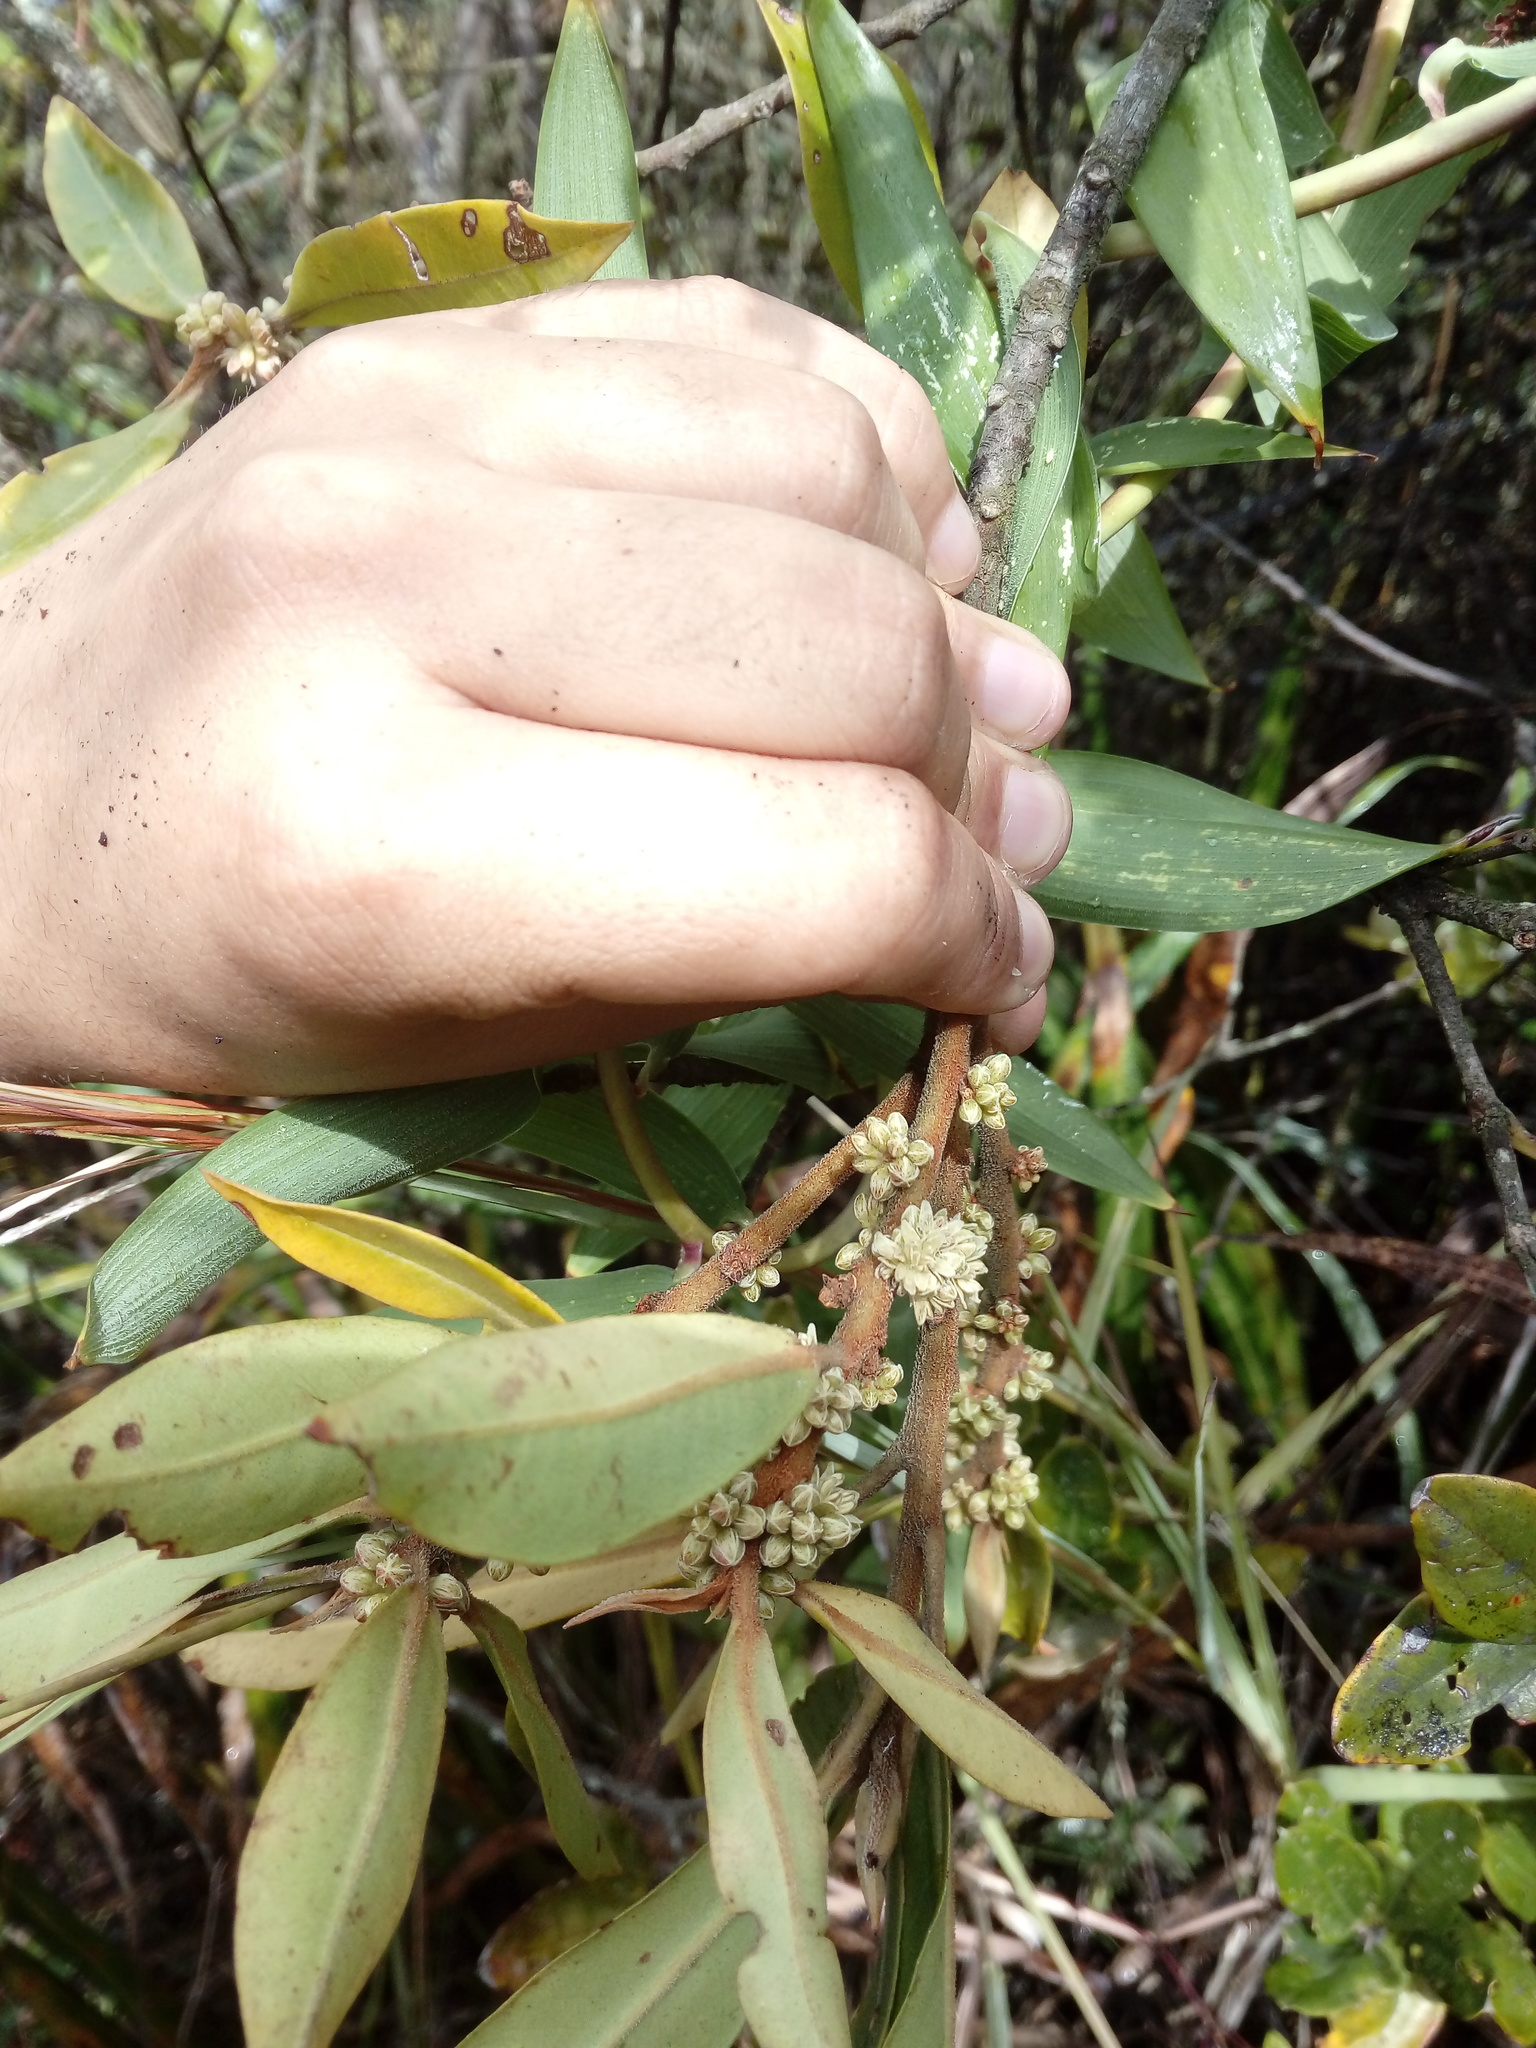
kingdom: Plantae
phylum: Tracheophyta
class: Magnoliopsida
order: Ericales
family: Primulaceae
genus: Myrsine
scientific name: Myrsine coriacea
